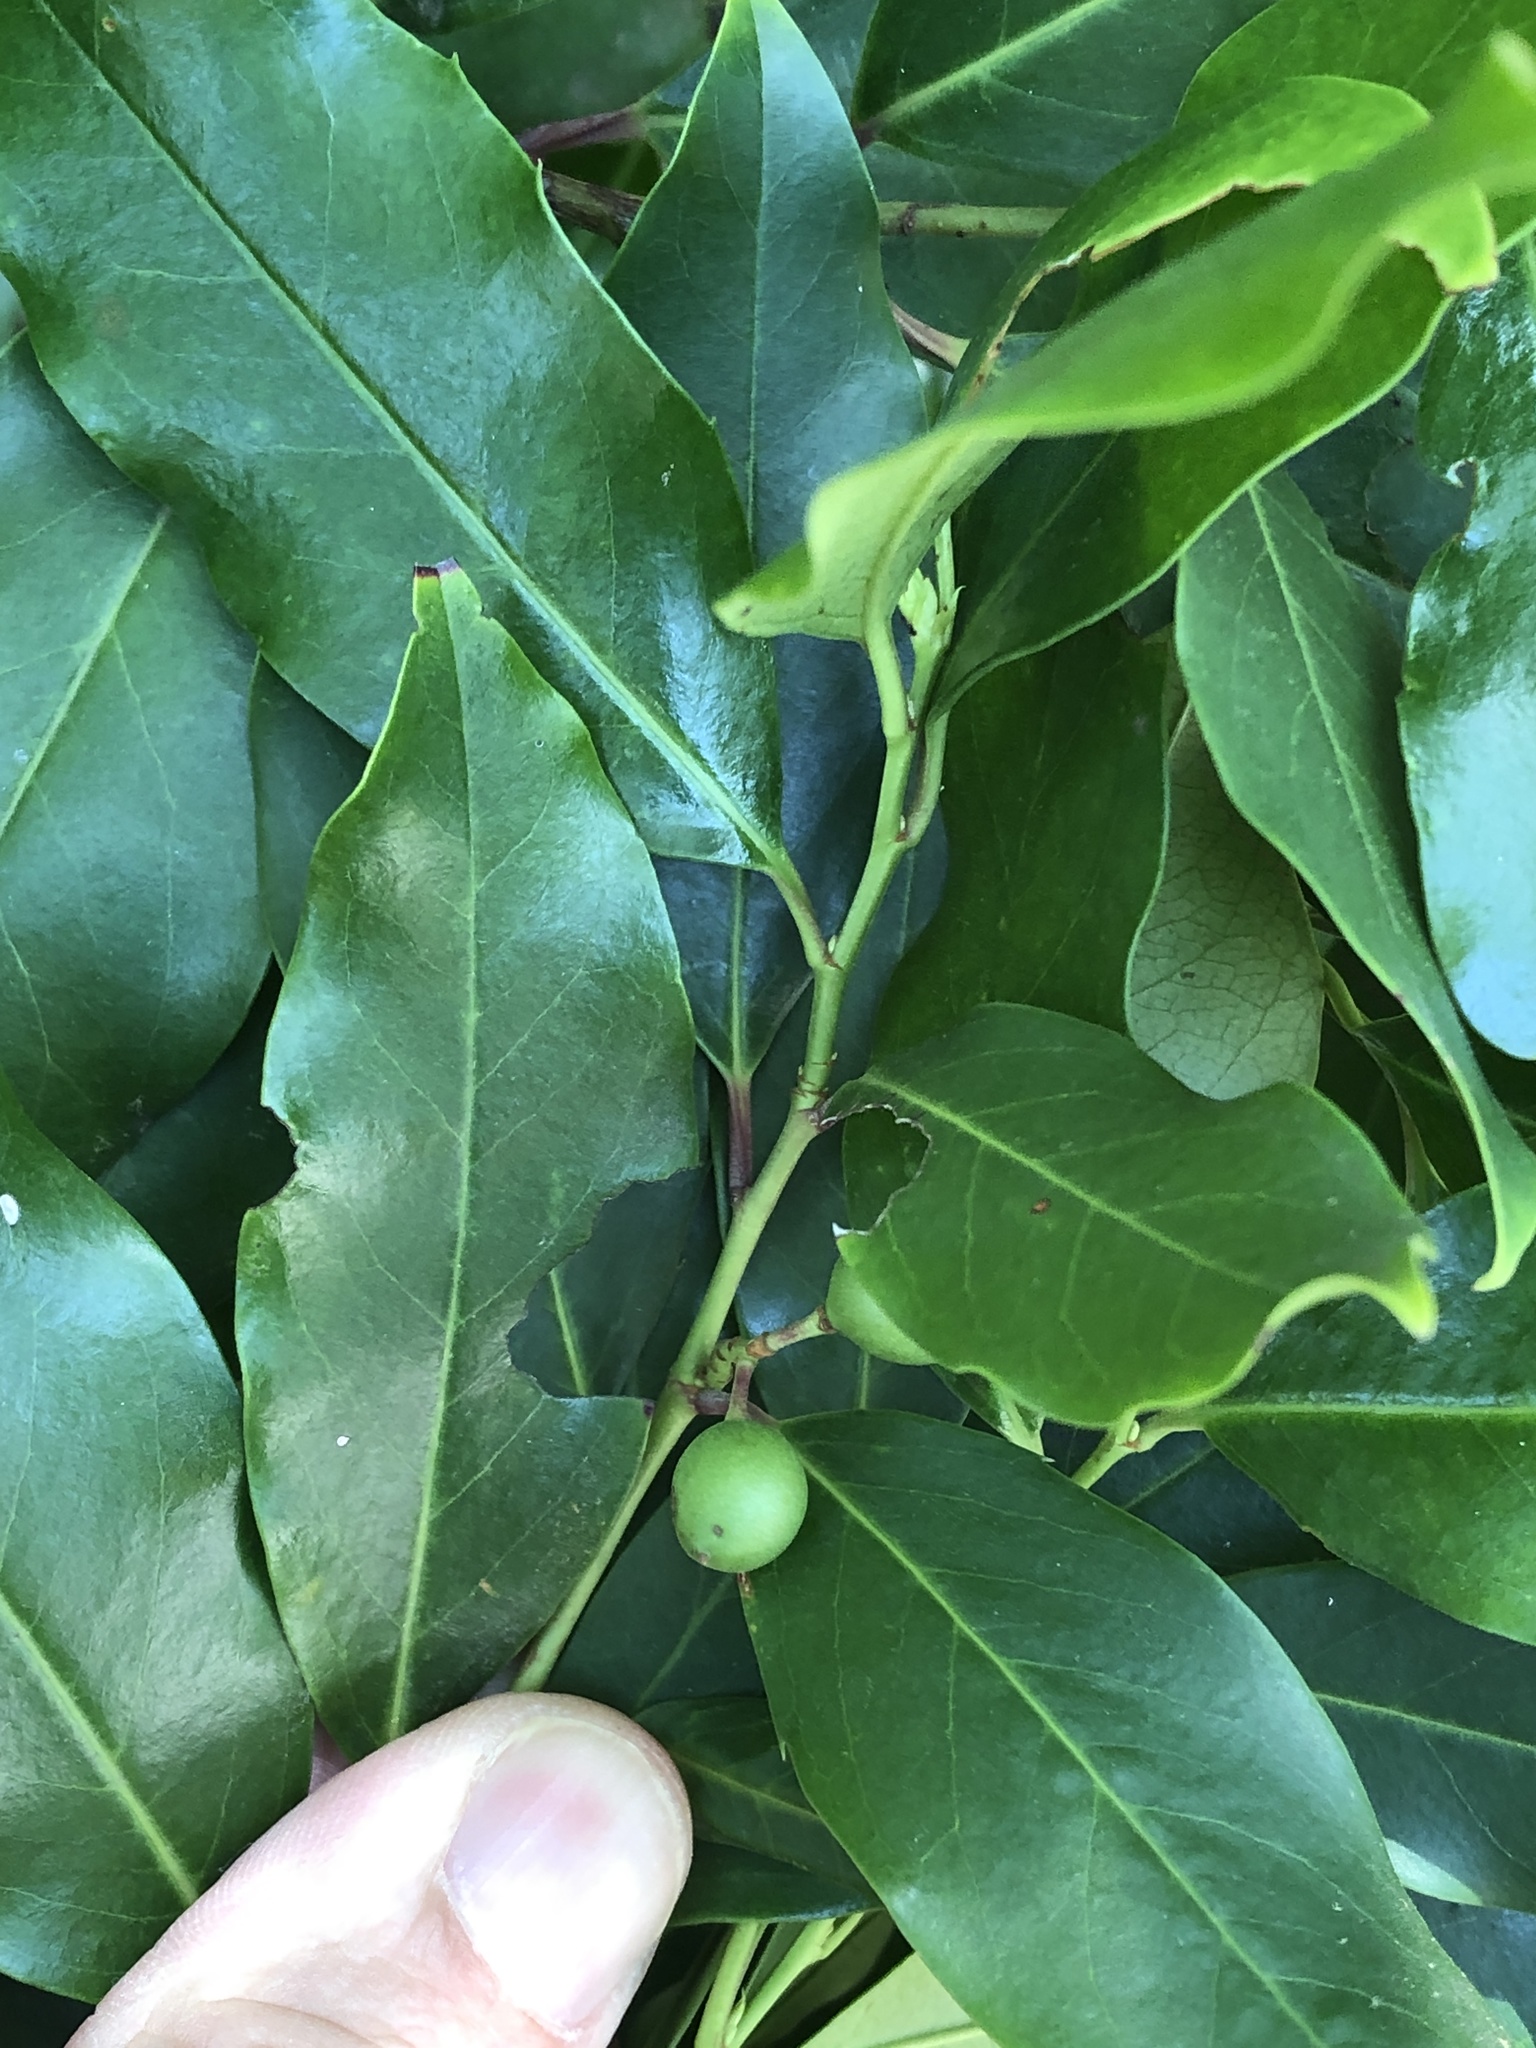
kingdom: Plantae
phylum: Tracheophyta
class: Magnoliopsida
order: Rosales
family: Rosaceae
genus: Prunus
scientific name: Prunus caroliniana
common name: Carolina laurel cherry
